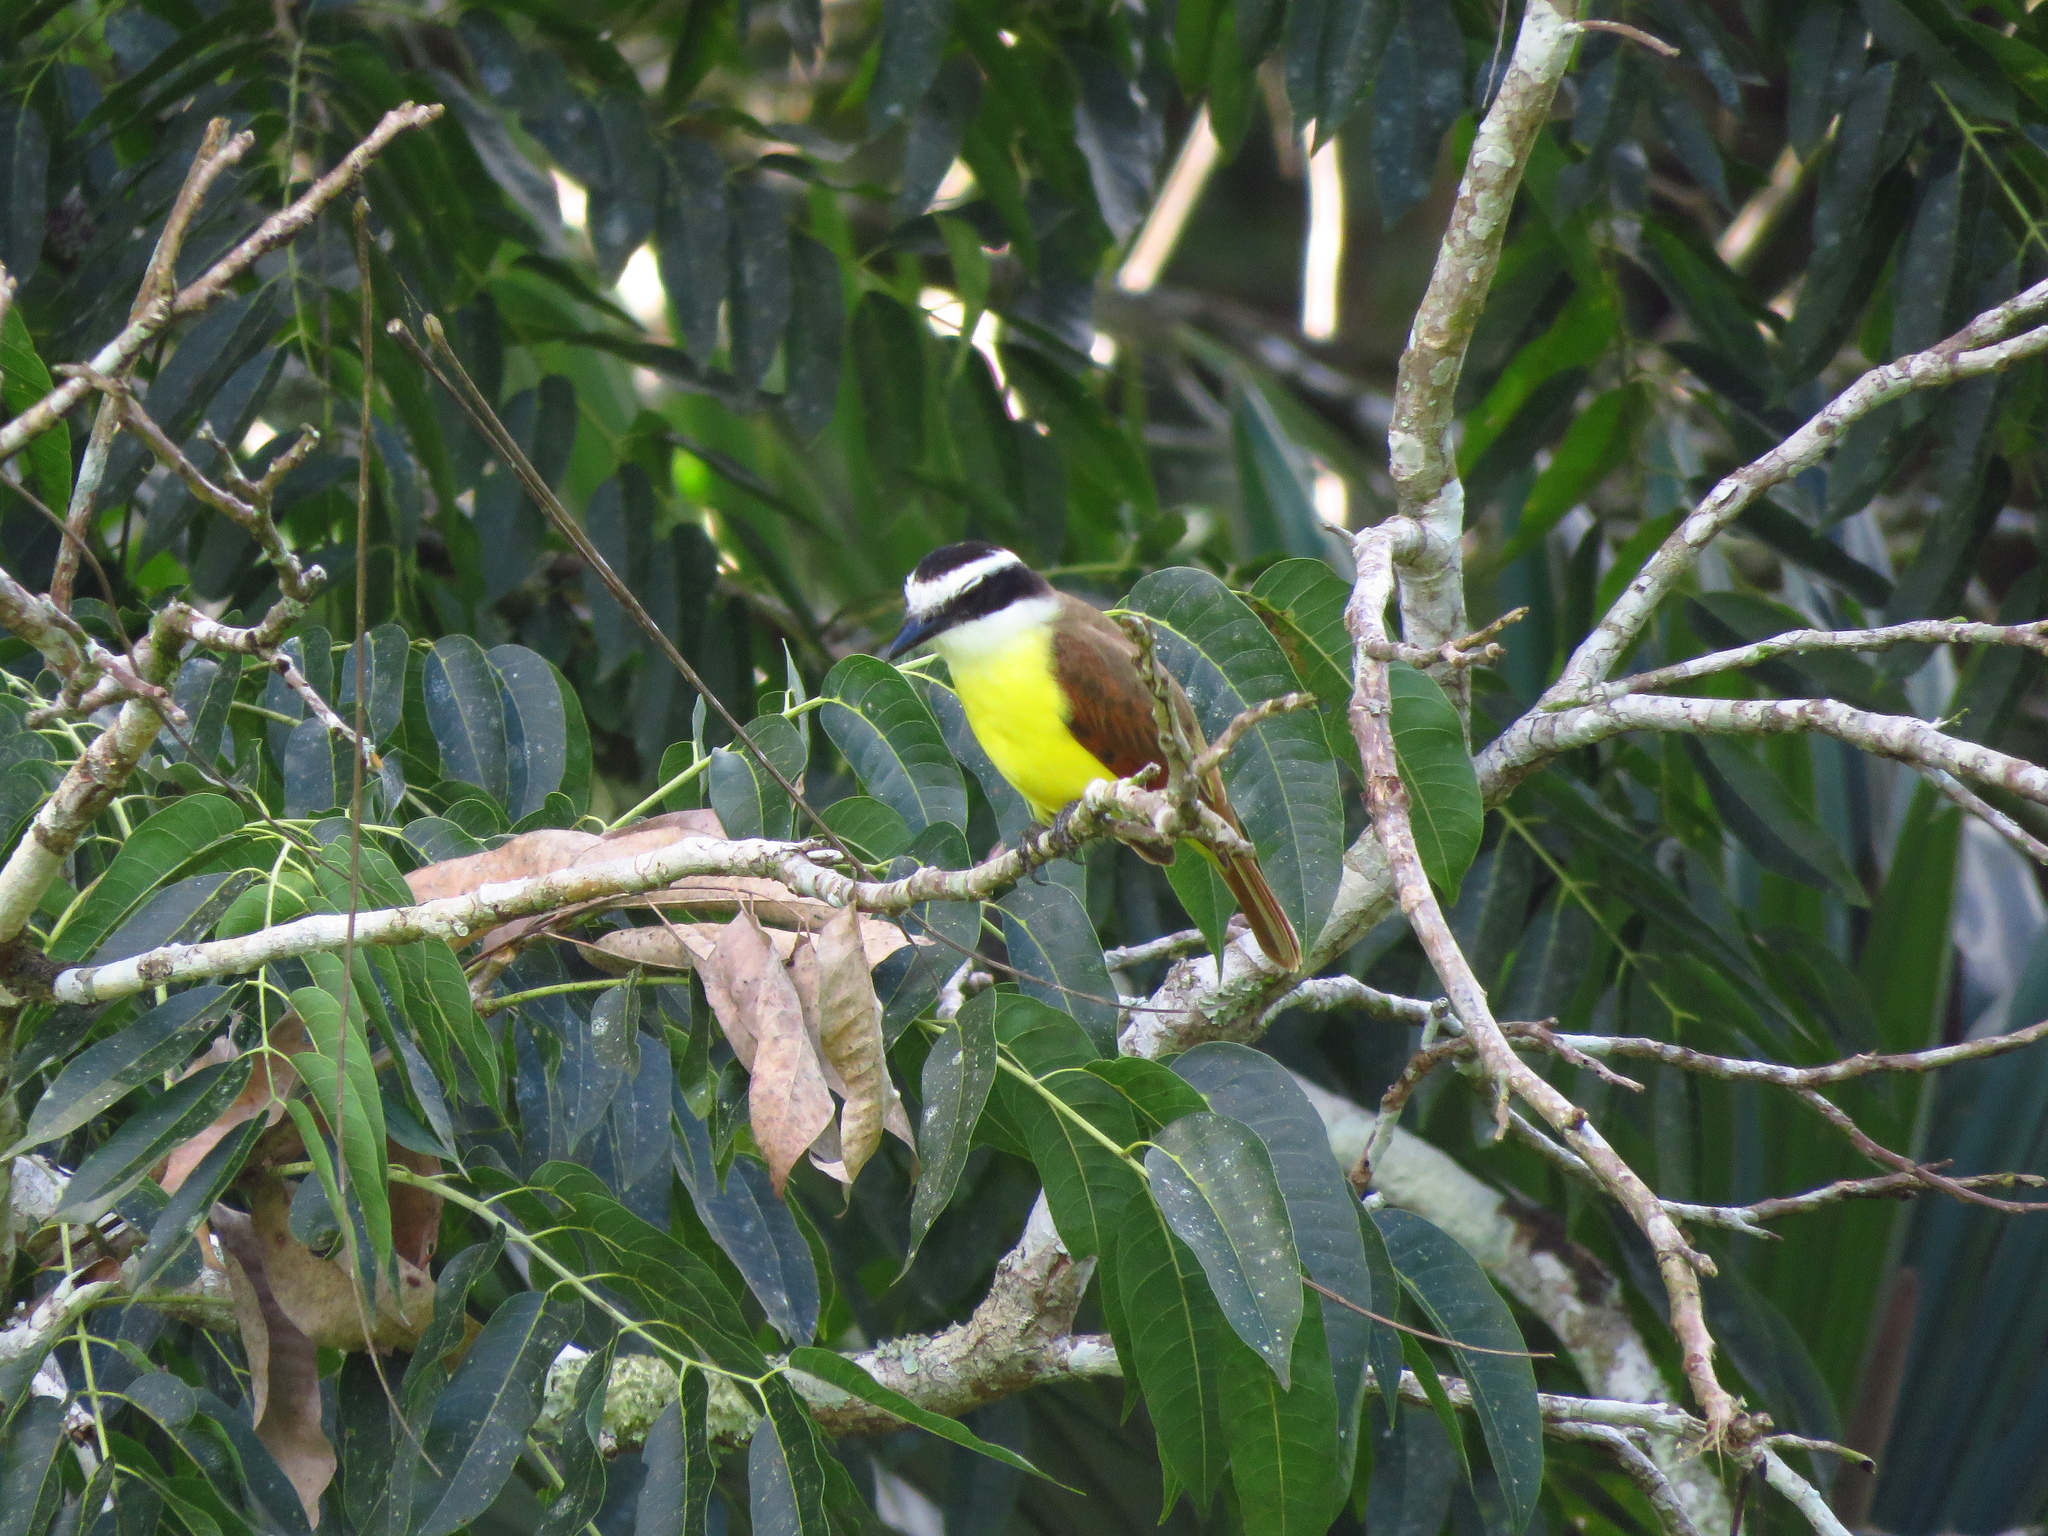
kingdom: Animalia
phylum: Chordata
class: Aves
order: Passeriformes
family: Tyrannidae
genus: Myiozetetes
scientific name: Myiozetetes similis
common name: Social flycatcher
